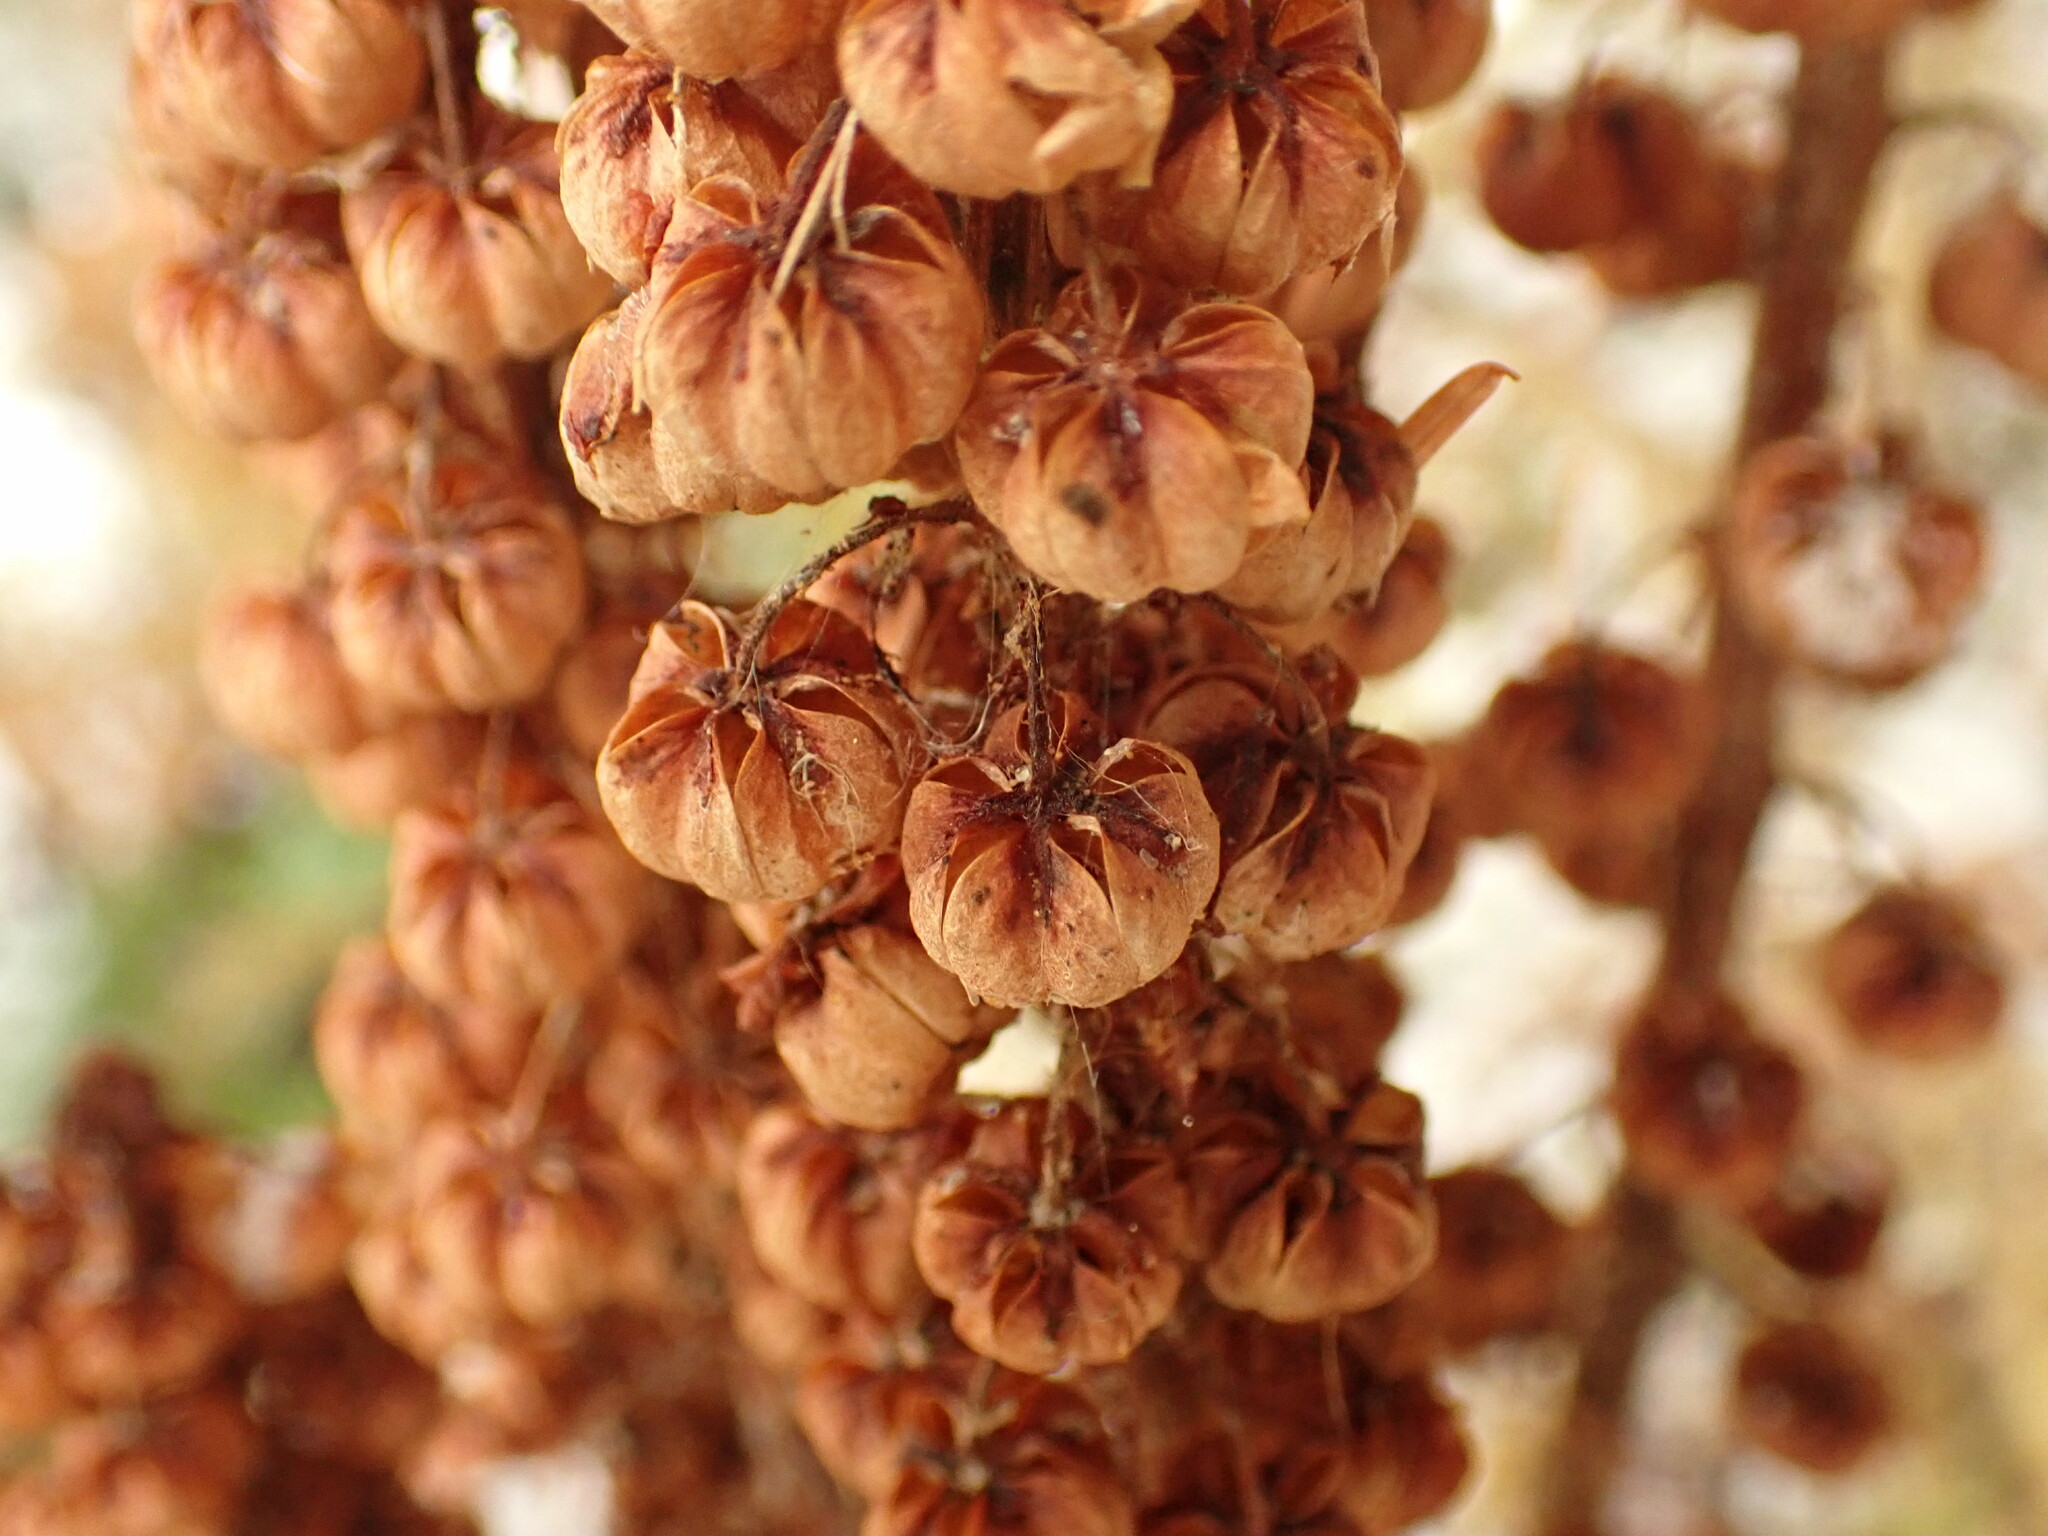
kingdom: Plantae
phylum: Tracheophyta
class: Magnoliopsida
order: Ericales
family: Ericaceae
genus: Pterospora
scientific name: Pterospora andromedea
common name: Giant bird's-nest
